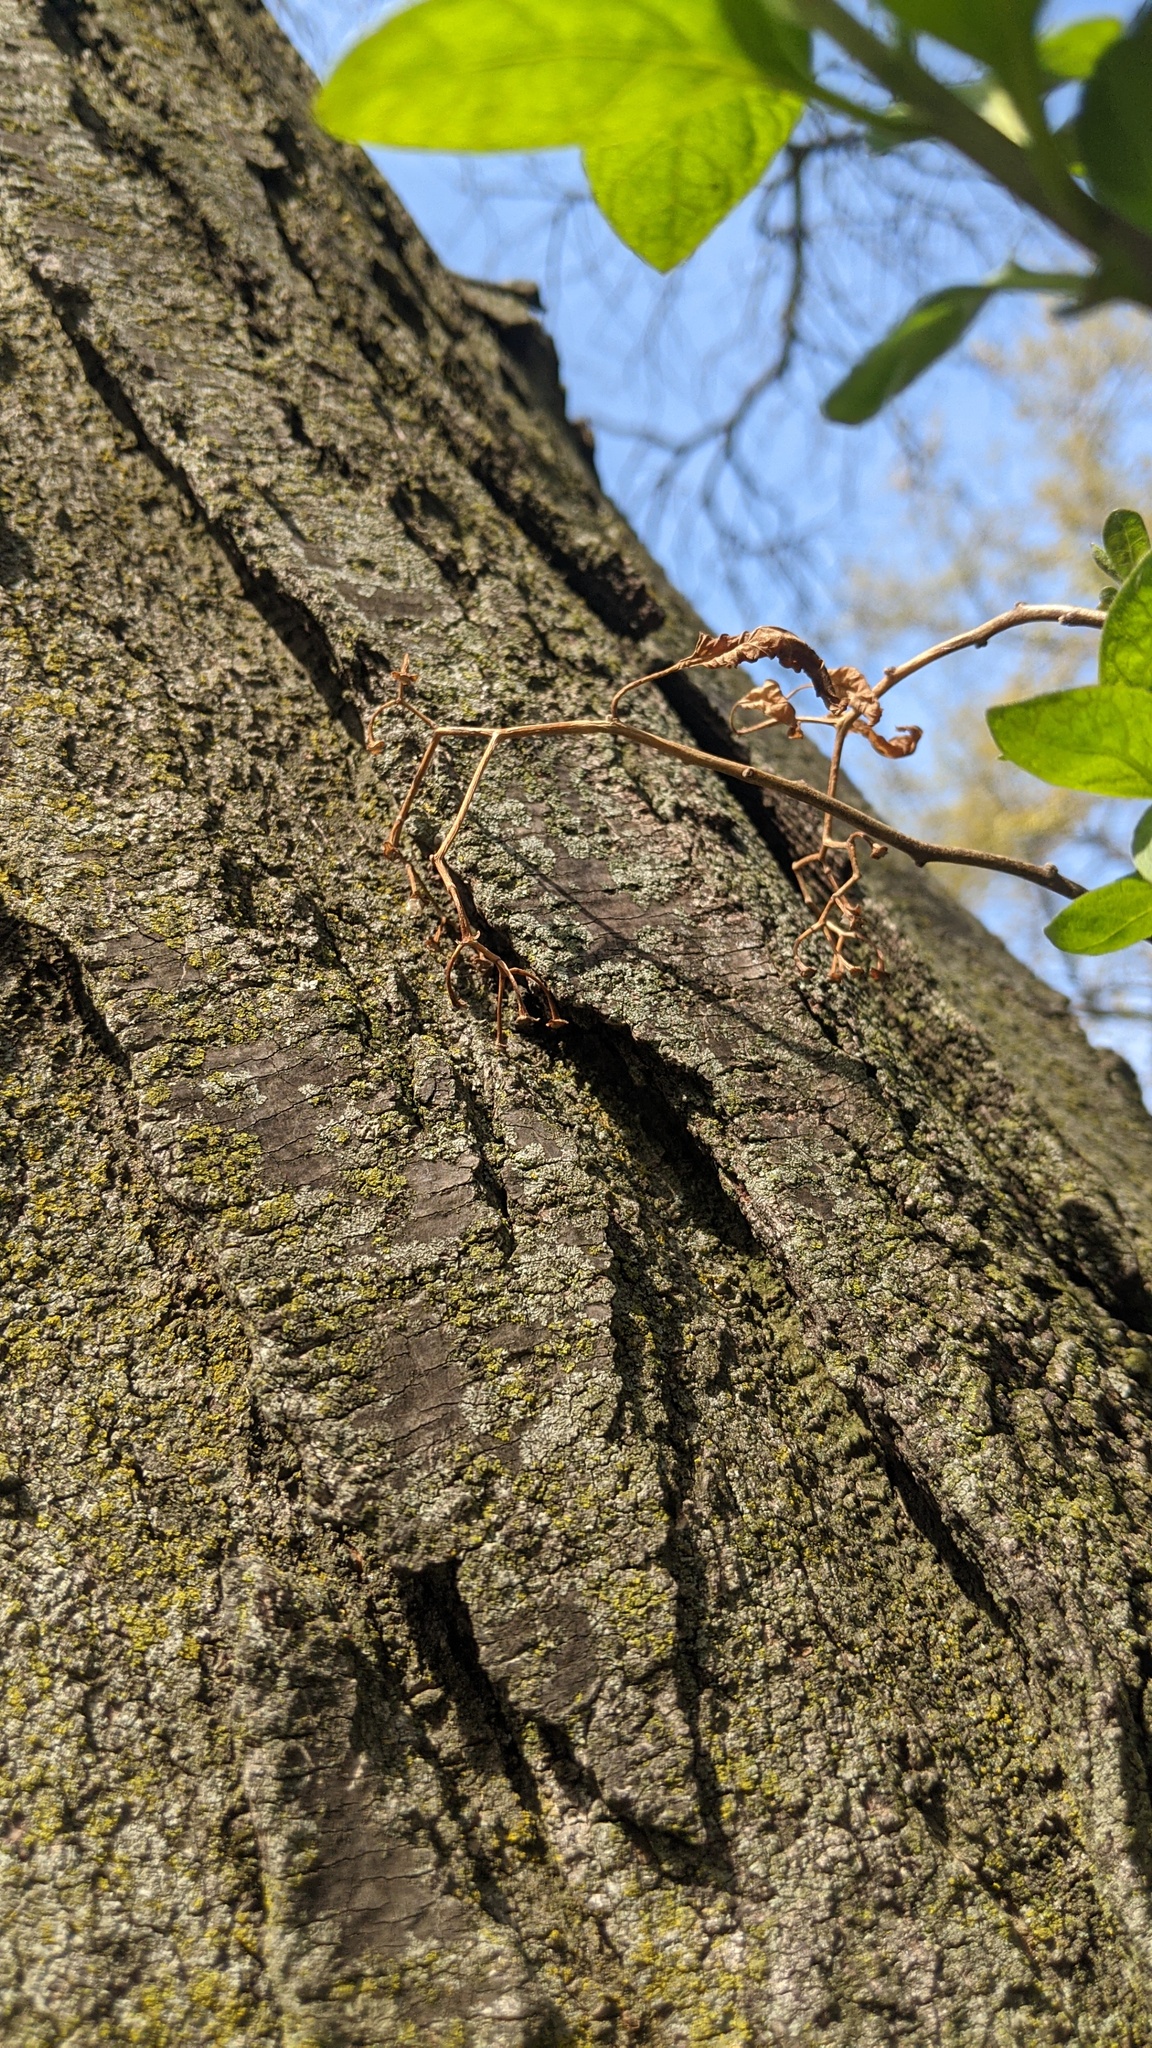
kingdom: Plantae
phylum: Tracheophyta
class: Magnoliopsida
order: Solanales
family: Solanaceae
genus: Solanum
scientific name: Solanum dulcamara
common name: Climbing nightshade
